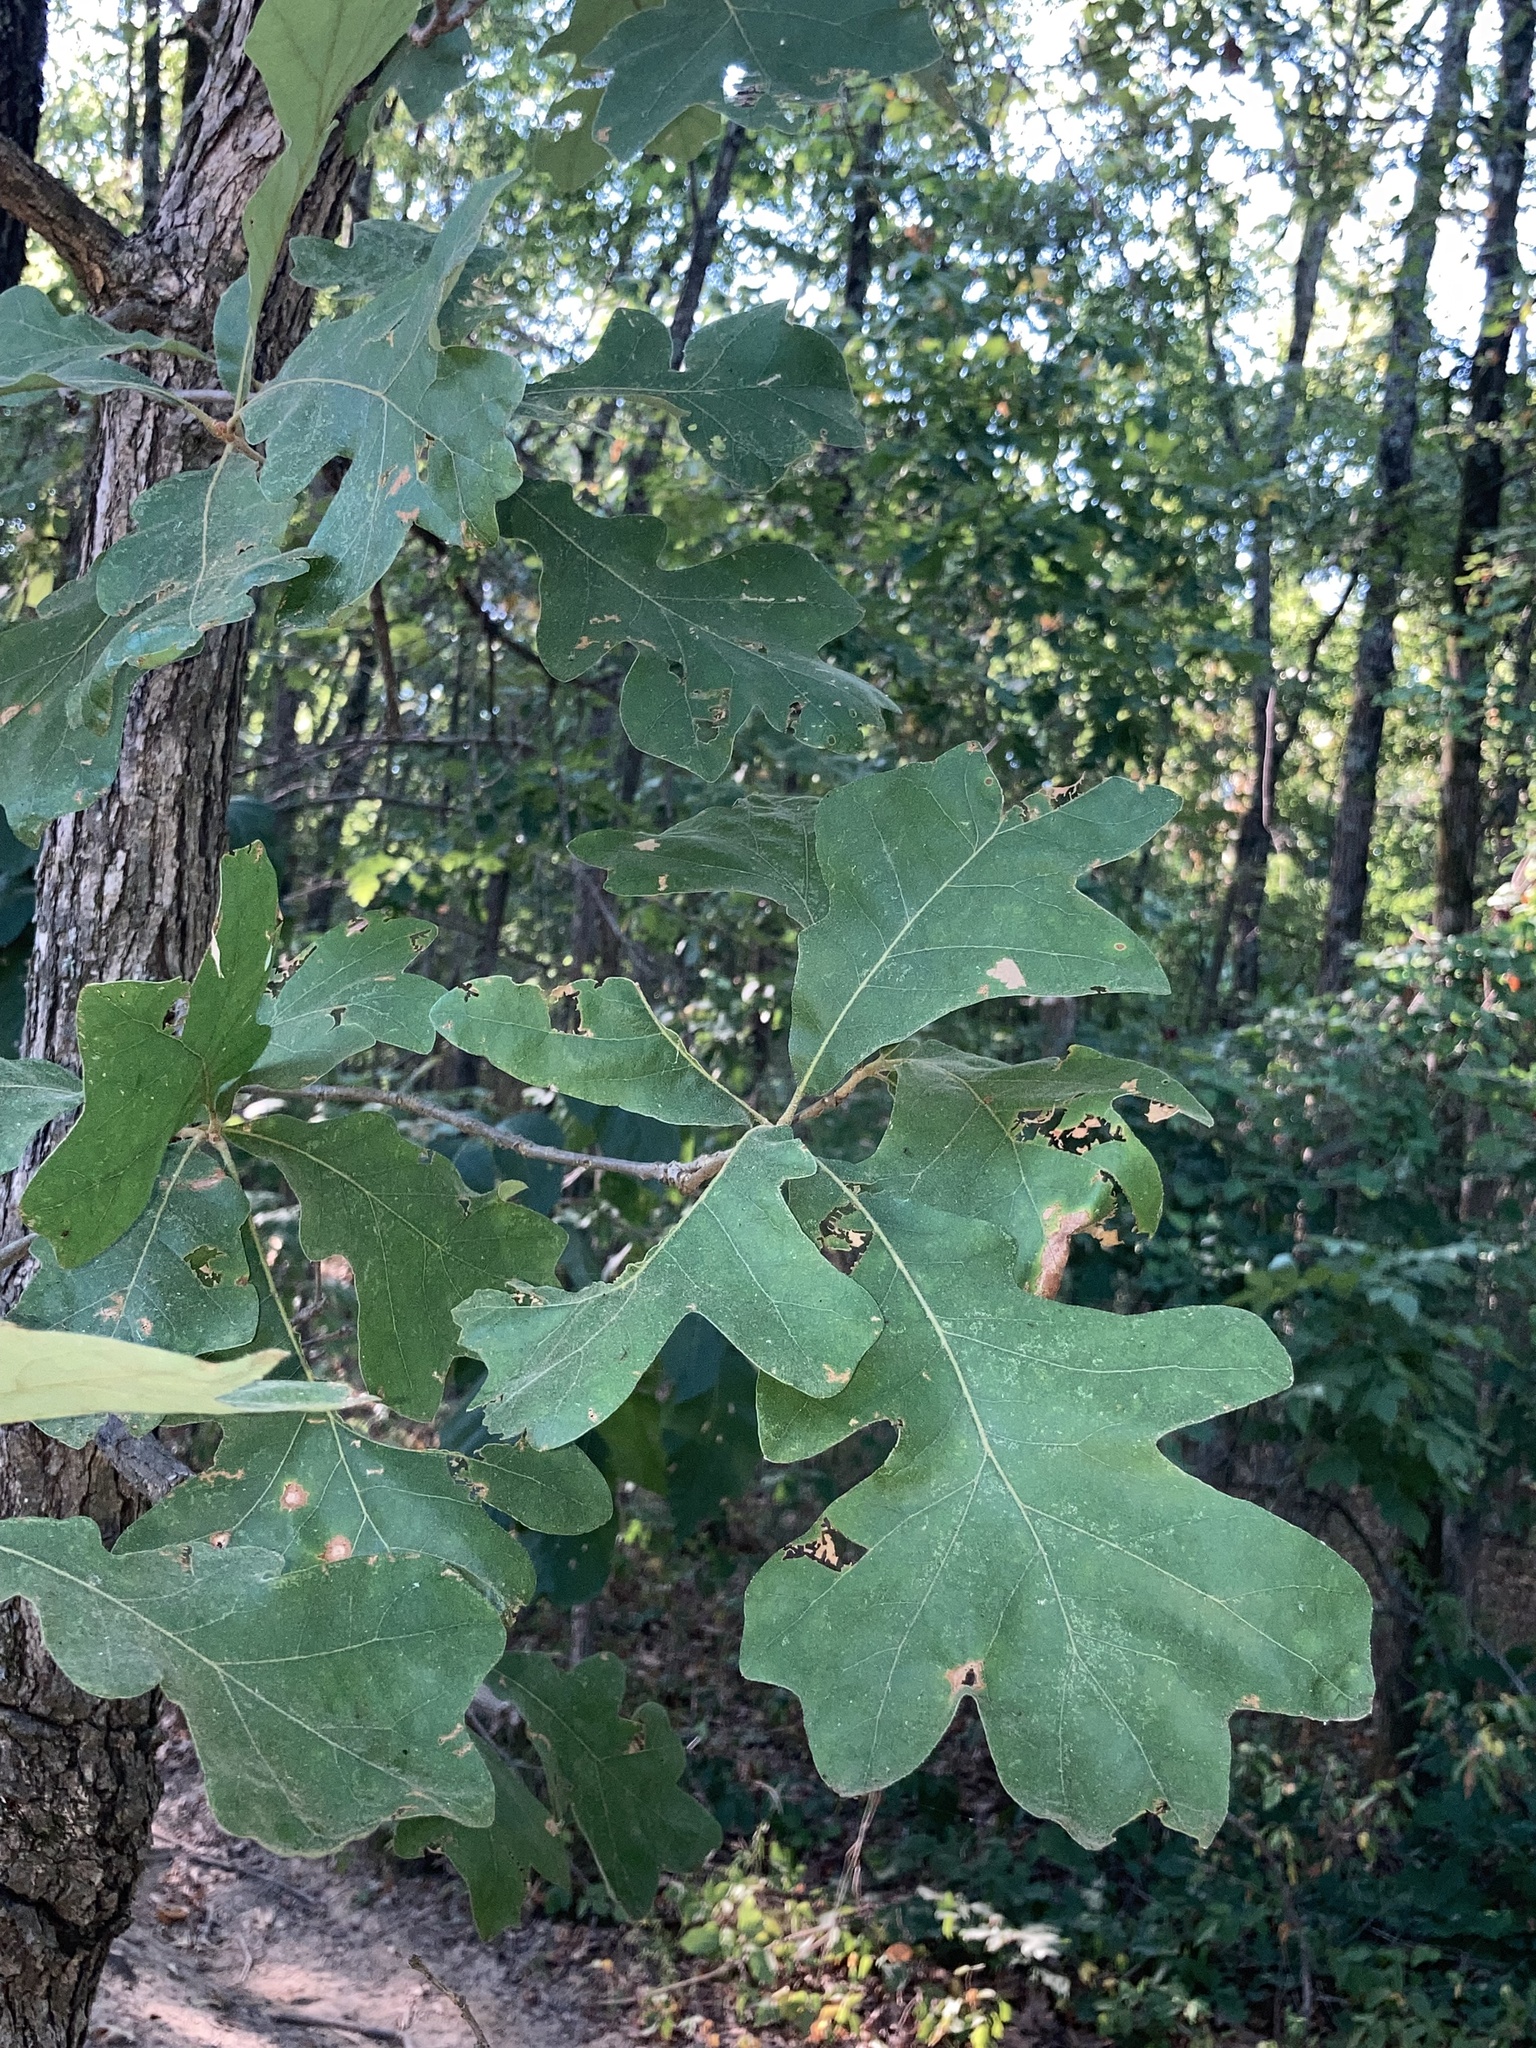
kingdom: Plantae
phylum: Tracheophyta
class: Magnoliopsida
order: Fagales
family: Fagaceae
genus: Quercus
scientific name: Quercus stellata
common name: Post oak
